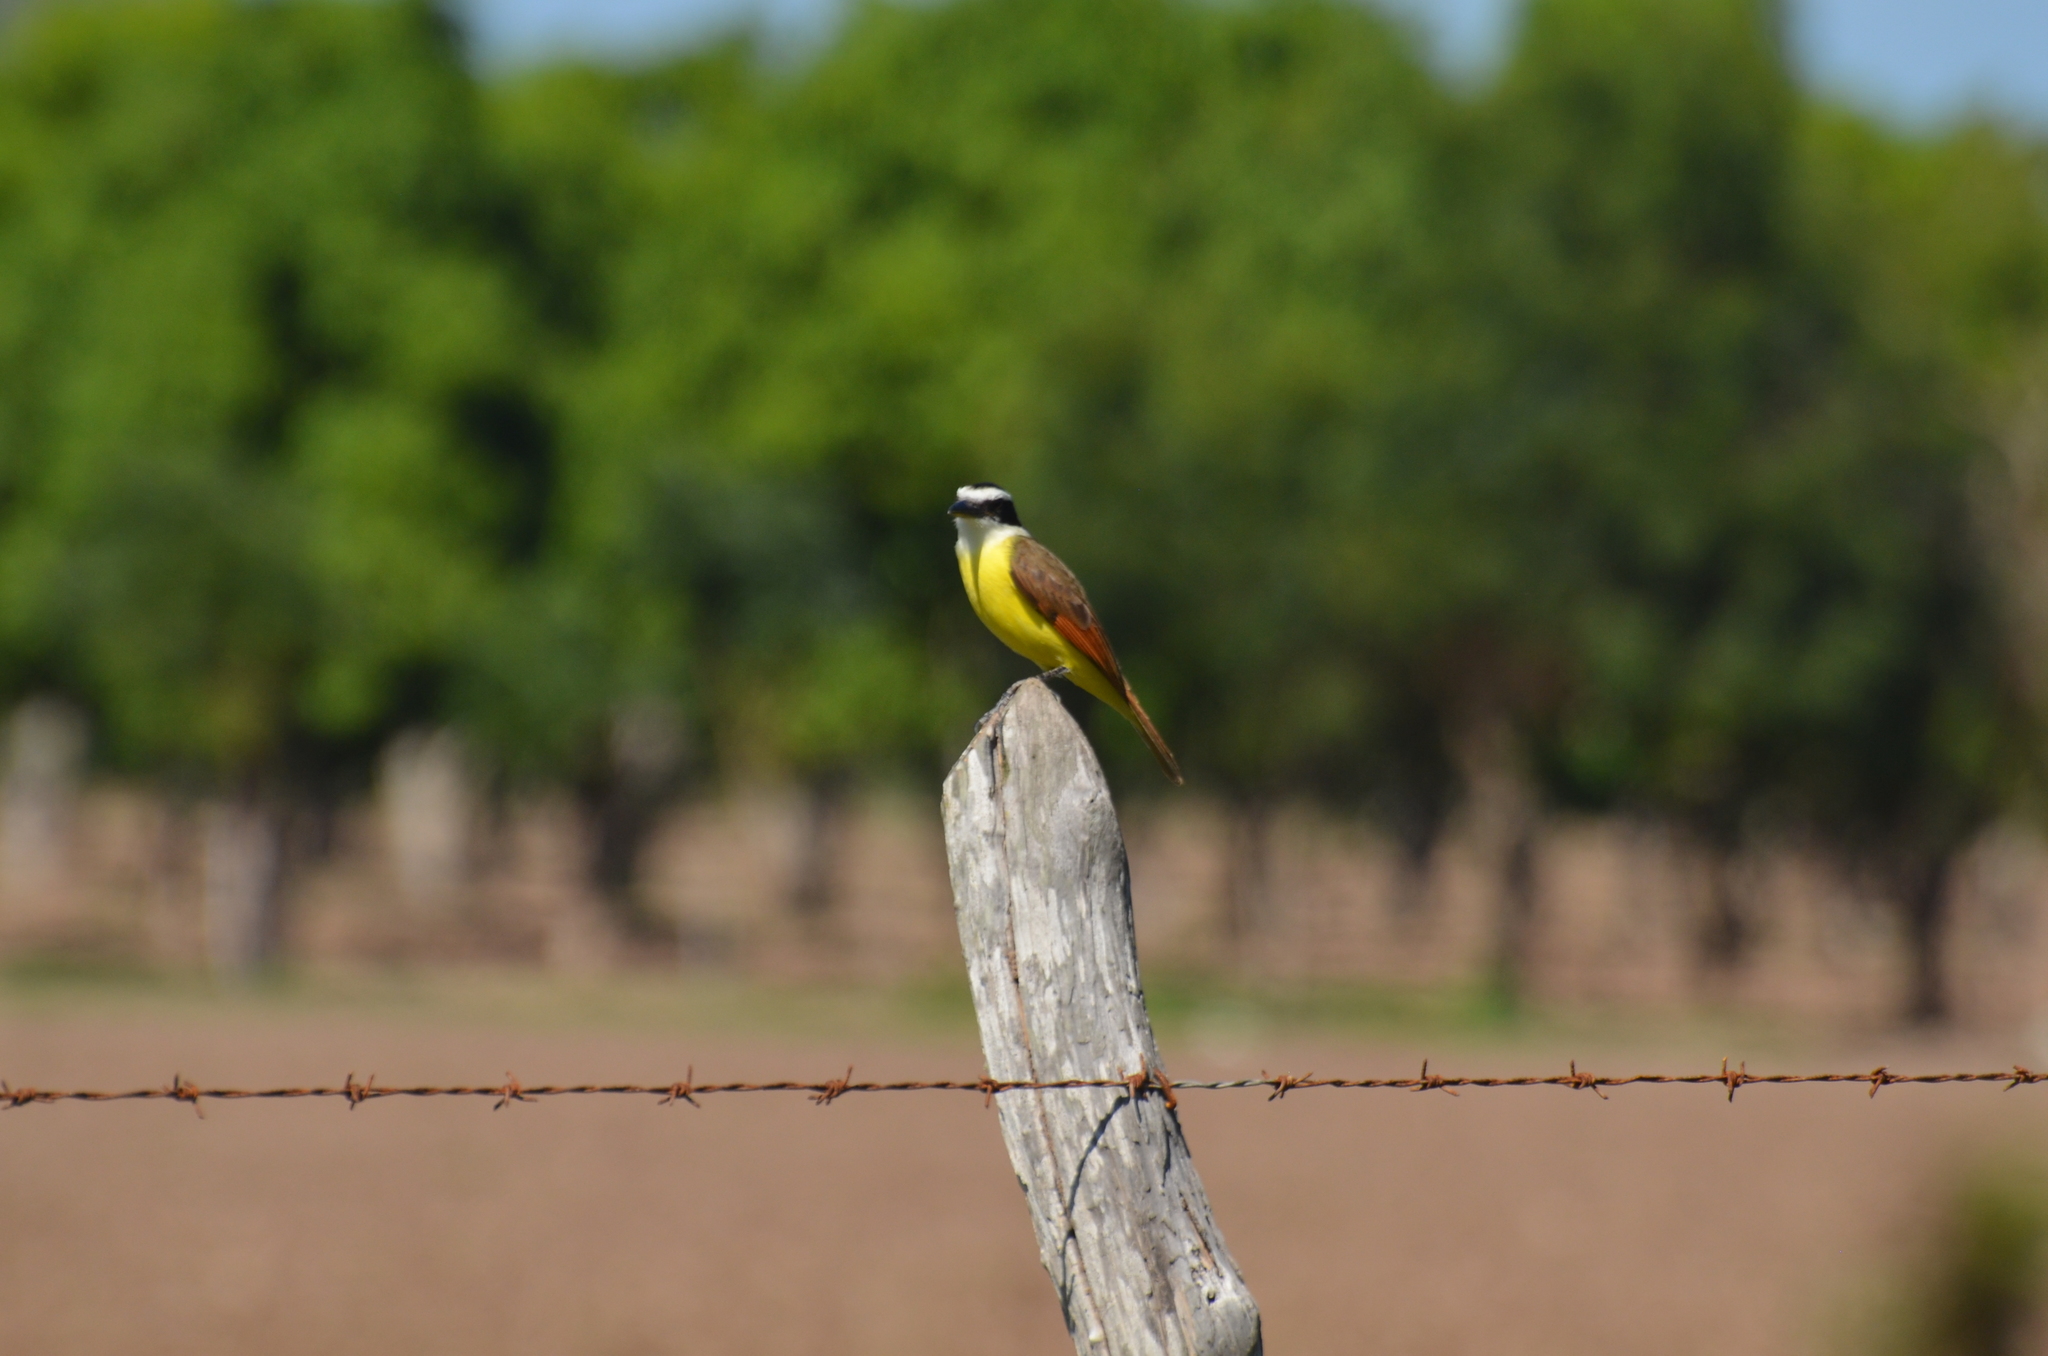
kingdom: Animalia
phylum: Chordata
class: Aves
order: Passeriformes
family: Tyrannidae
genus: Pitangus
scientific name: Pitangus sulphuratus
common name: Great kiskadee
